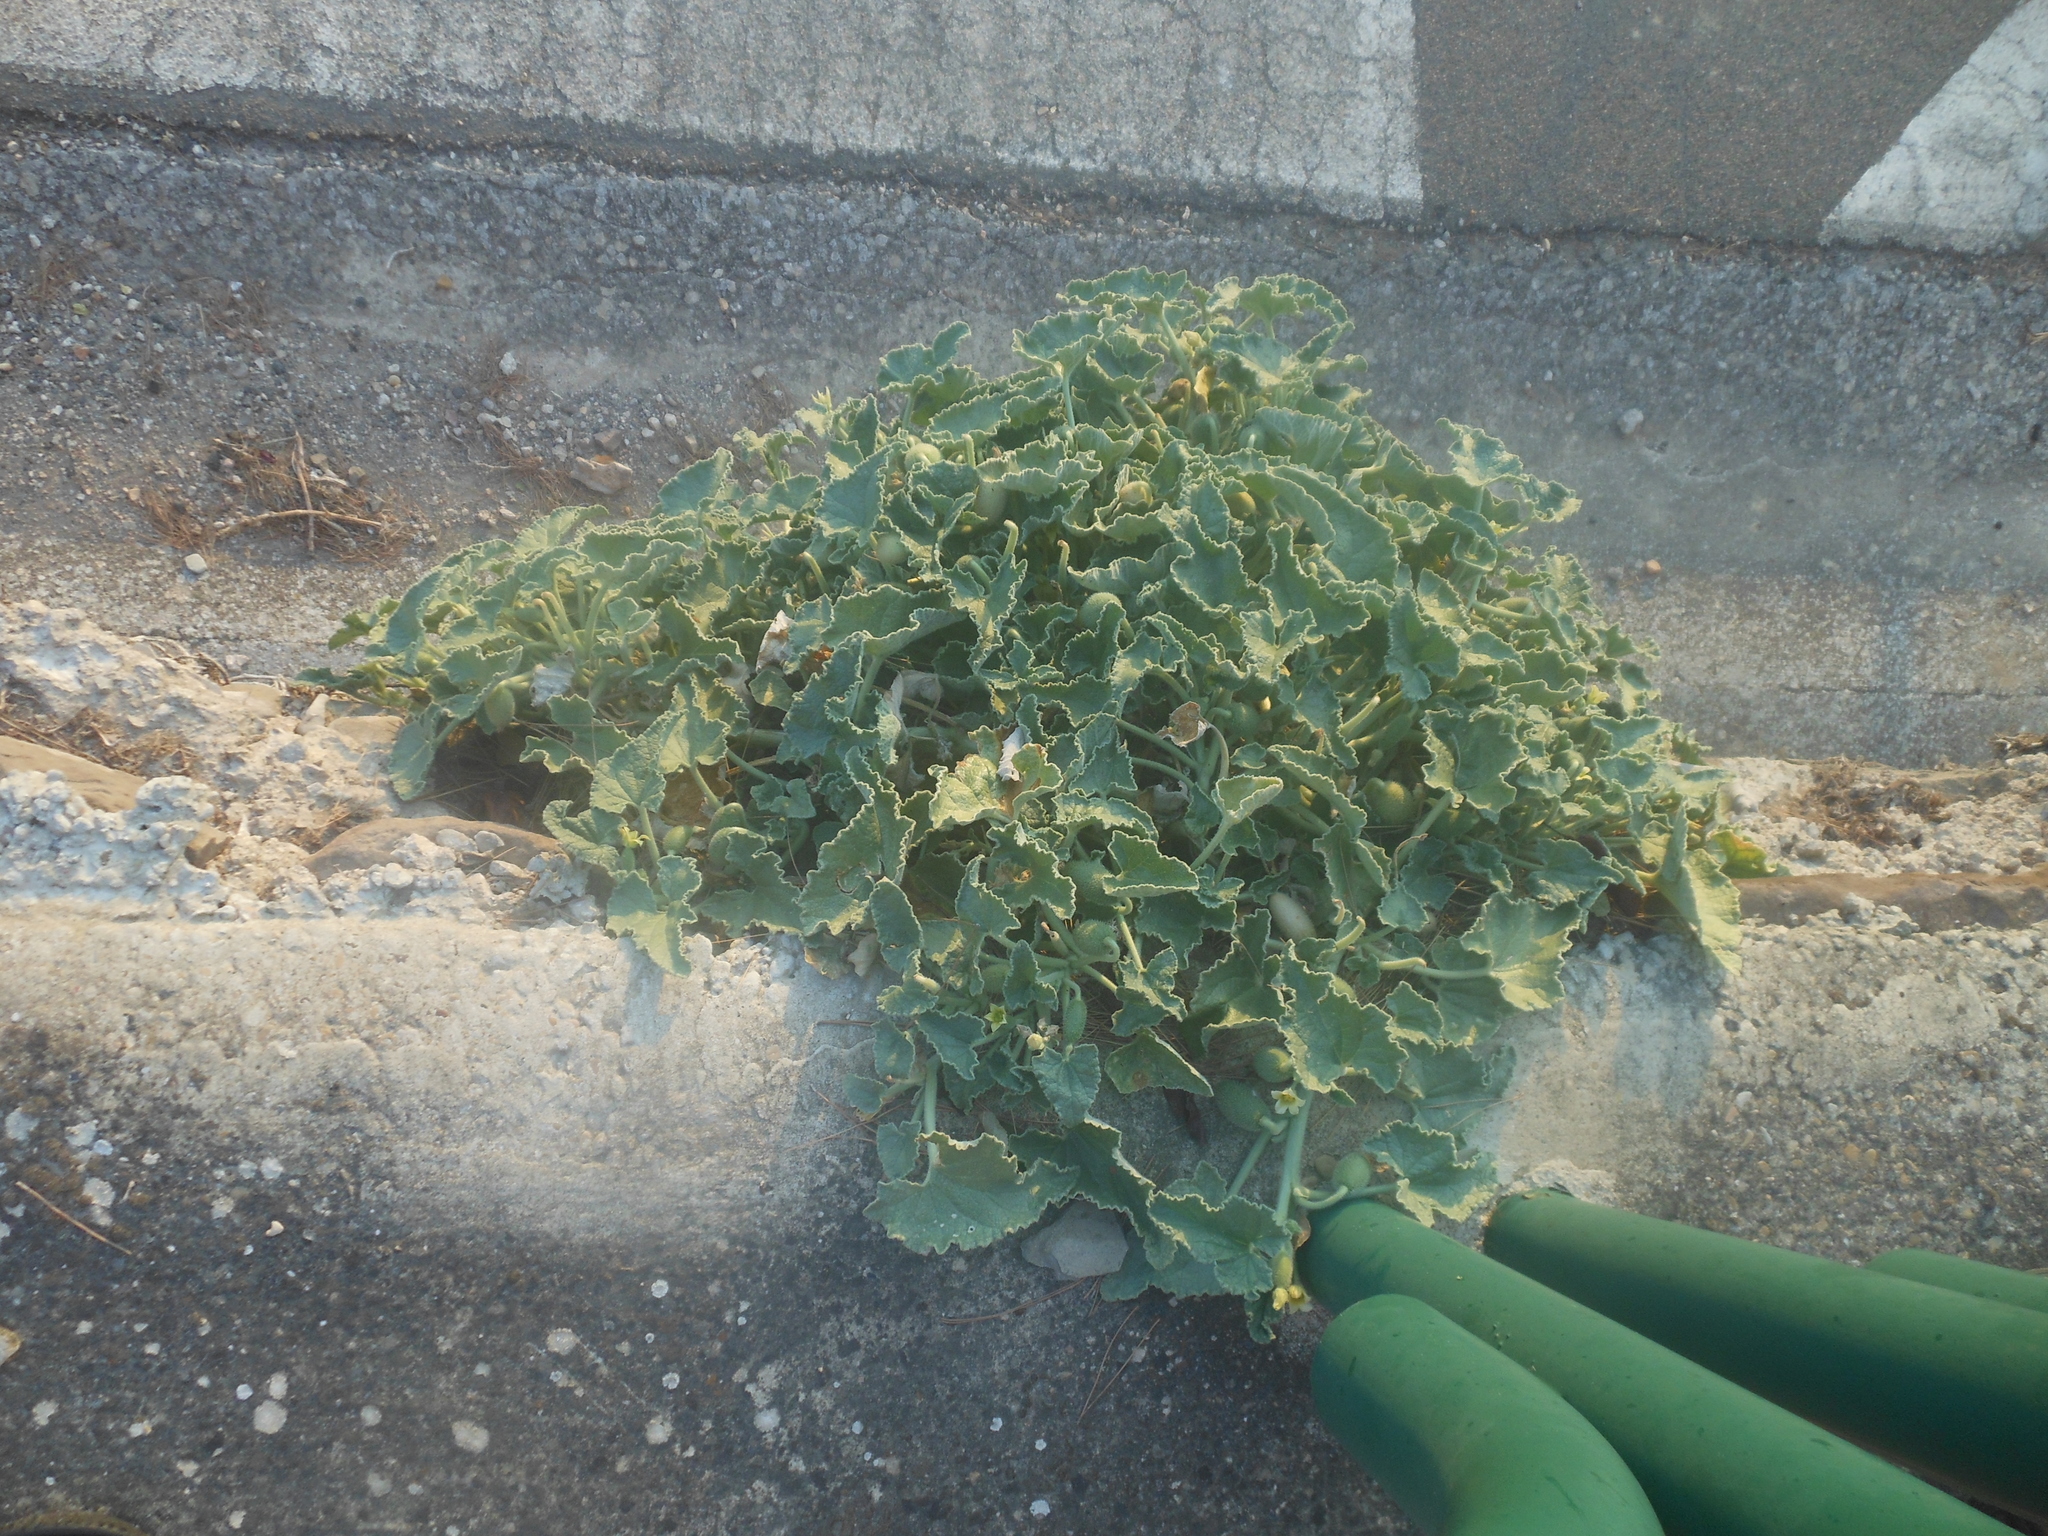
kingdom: Plantae
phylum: Tracheophyta
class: Magnoliopsida
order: Cucurbitales
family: Cucurbitaceae
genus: Ecballium
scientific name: Ecballium elaterium
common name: Squirting cucumber
